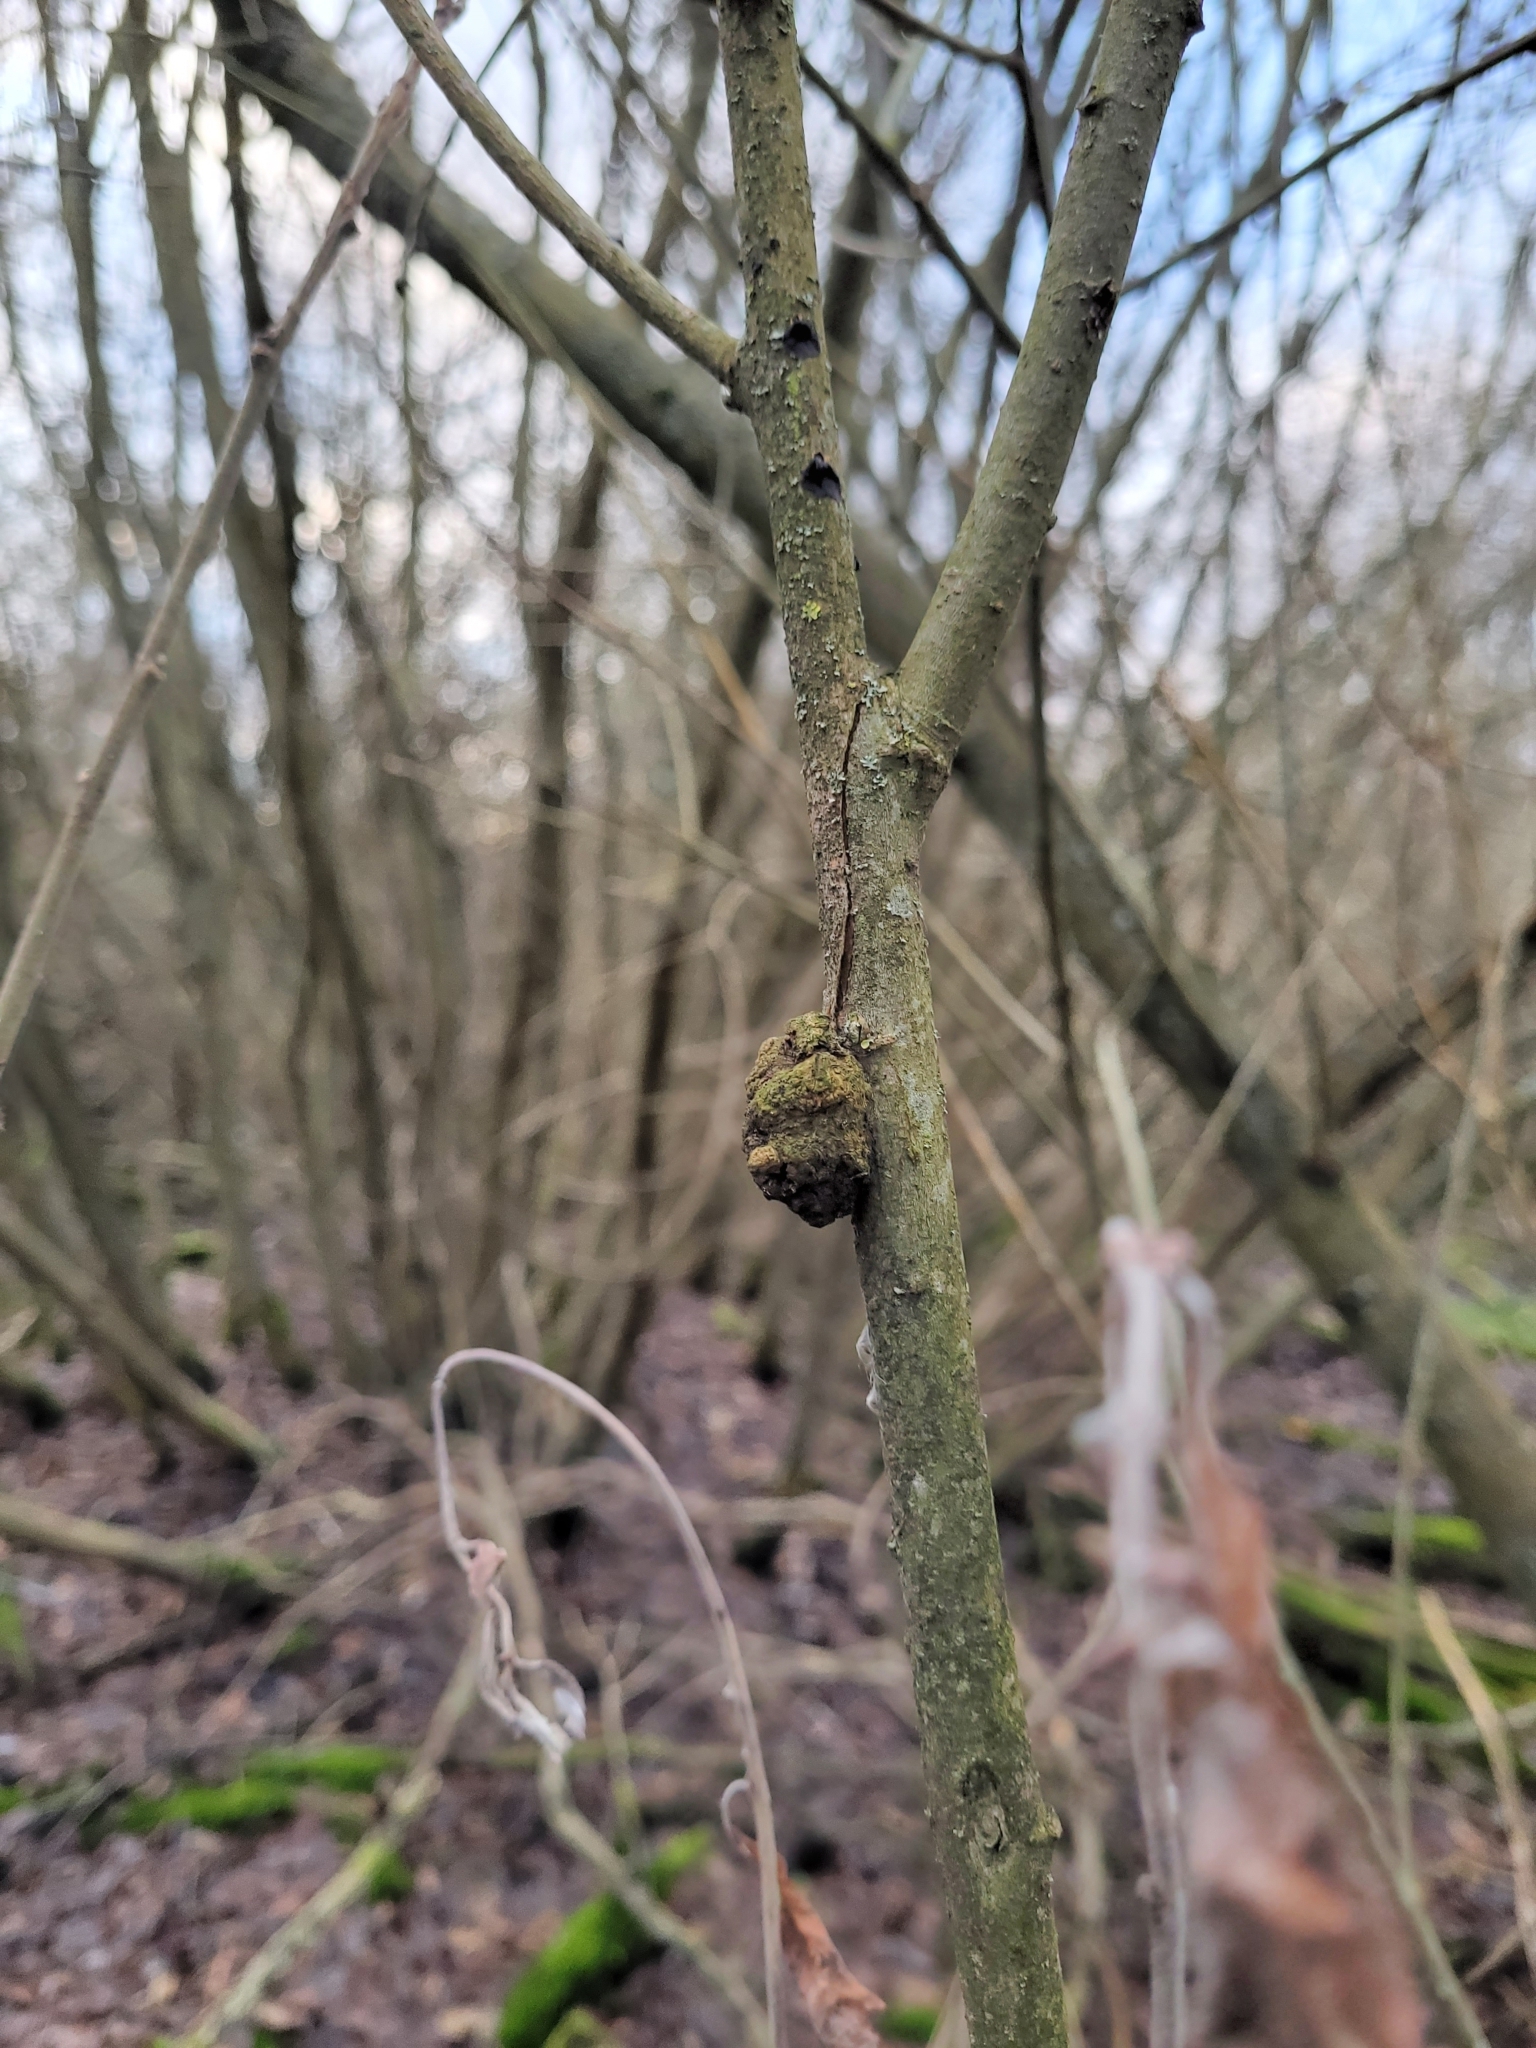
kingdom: Bacteria
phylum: Proteobacteria
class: Alphaproteobacteria
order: Rhizobiales
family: Rhizobiaceae
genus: Rhizobium
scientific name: Rhizobium Agrobacterium radiobacter
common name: Bacterial crown gall
